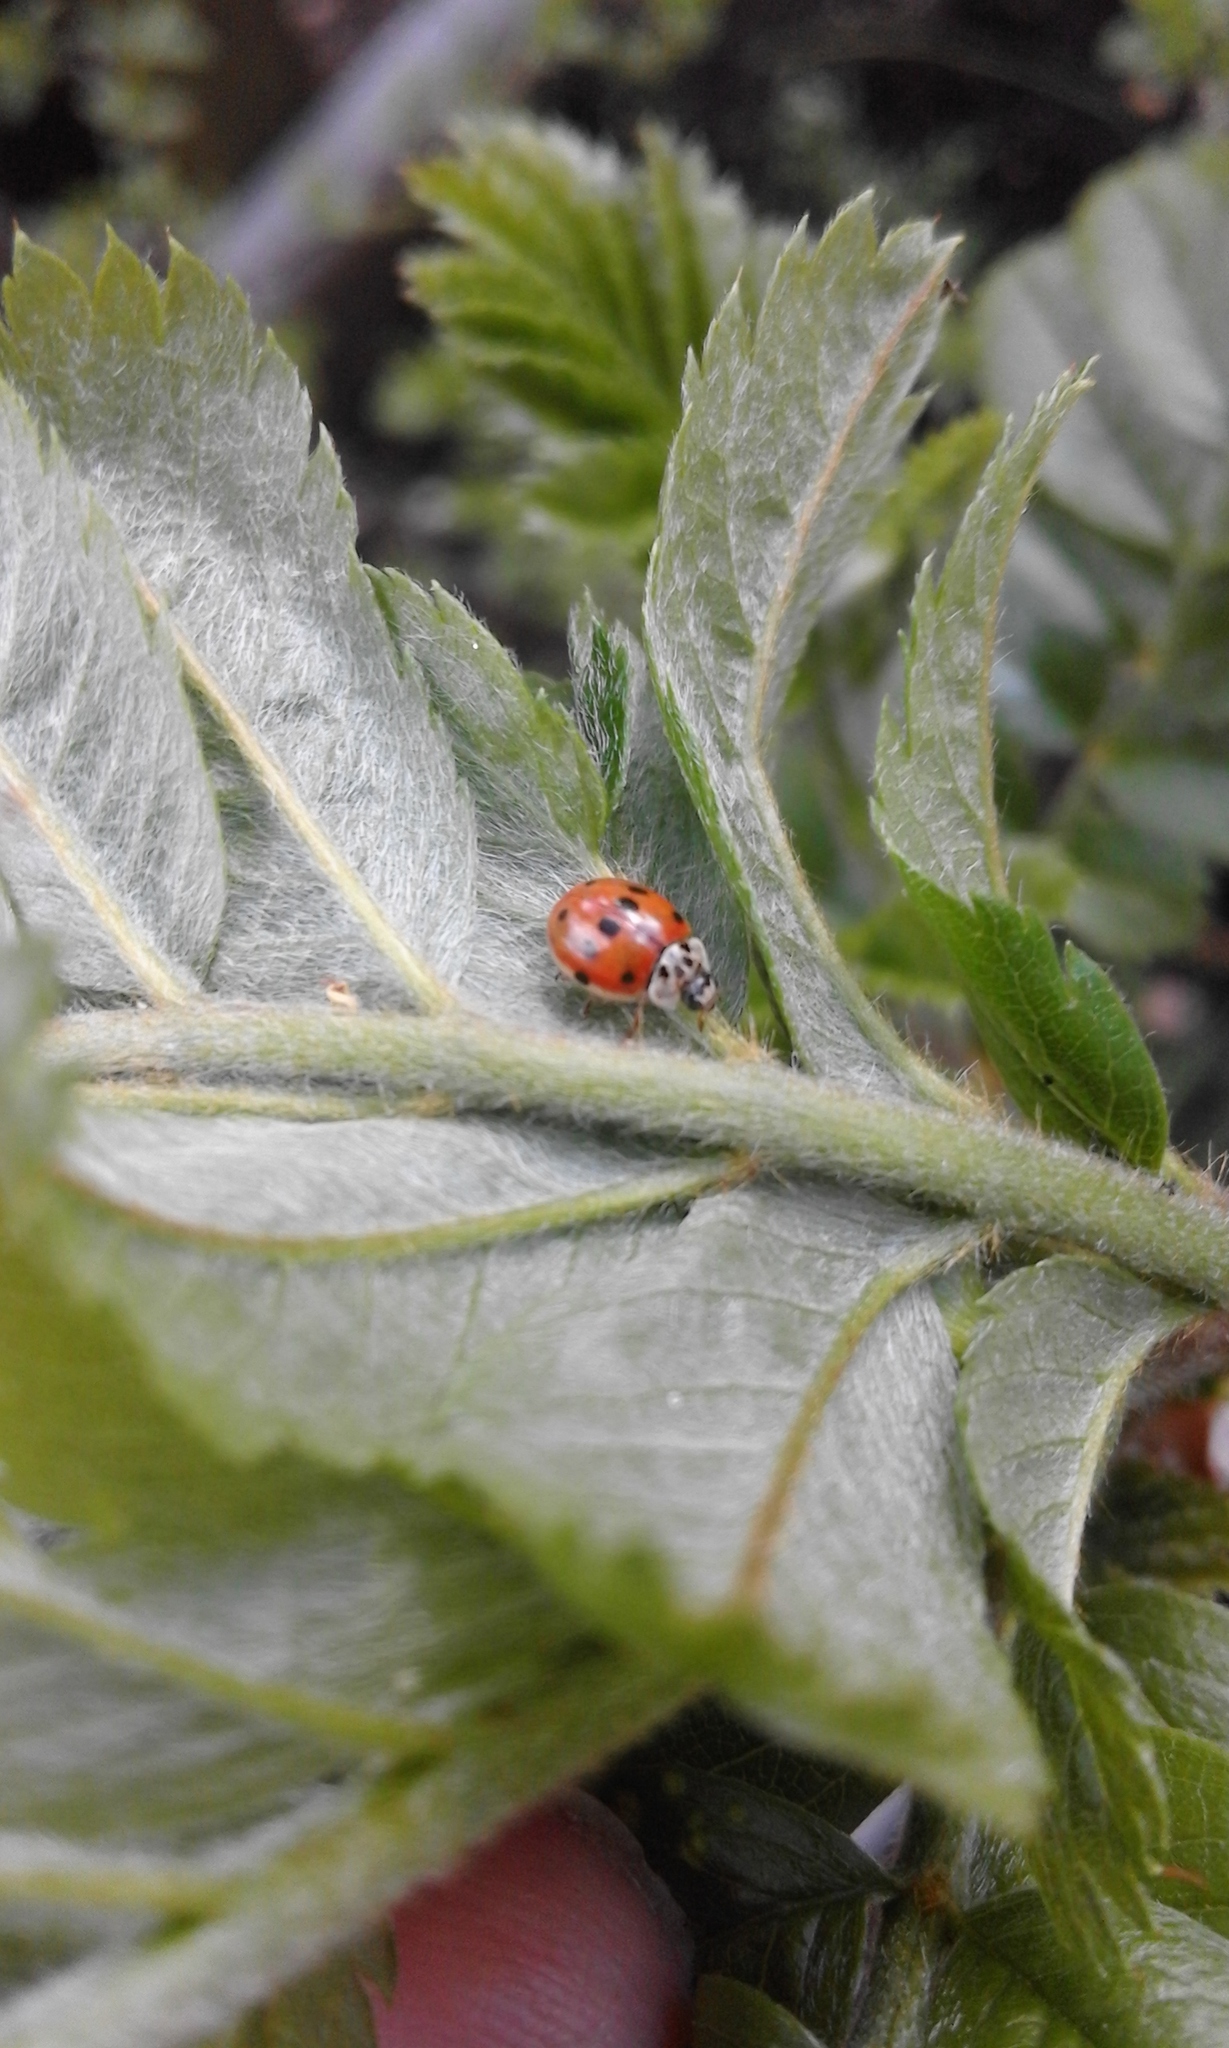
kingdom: Animalia
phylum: Arthropoda
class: Insecta
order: Coleoptera
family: Coccinellidae
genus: Adalia
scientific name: Adalia decempunctata
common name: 10-spot ladybird
